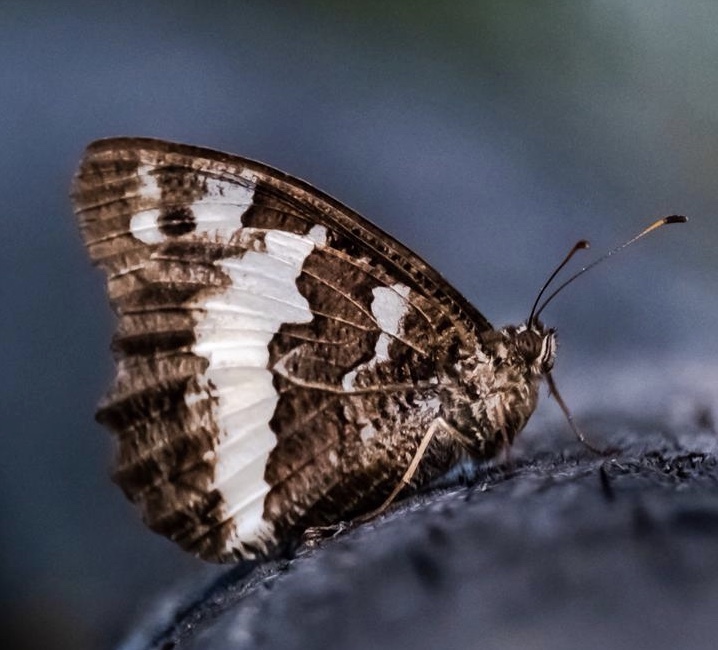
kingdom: Animalia
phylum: Arthropoda
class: Insecta
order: Lepidoptera
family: Lycaenidae
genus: Loweia
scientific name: Loweia tityrus
